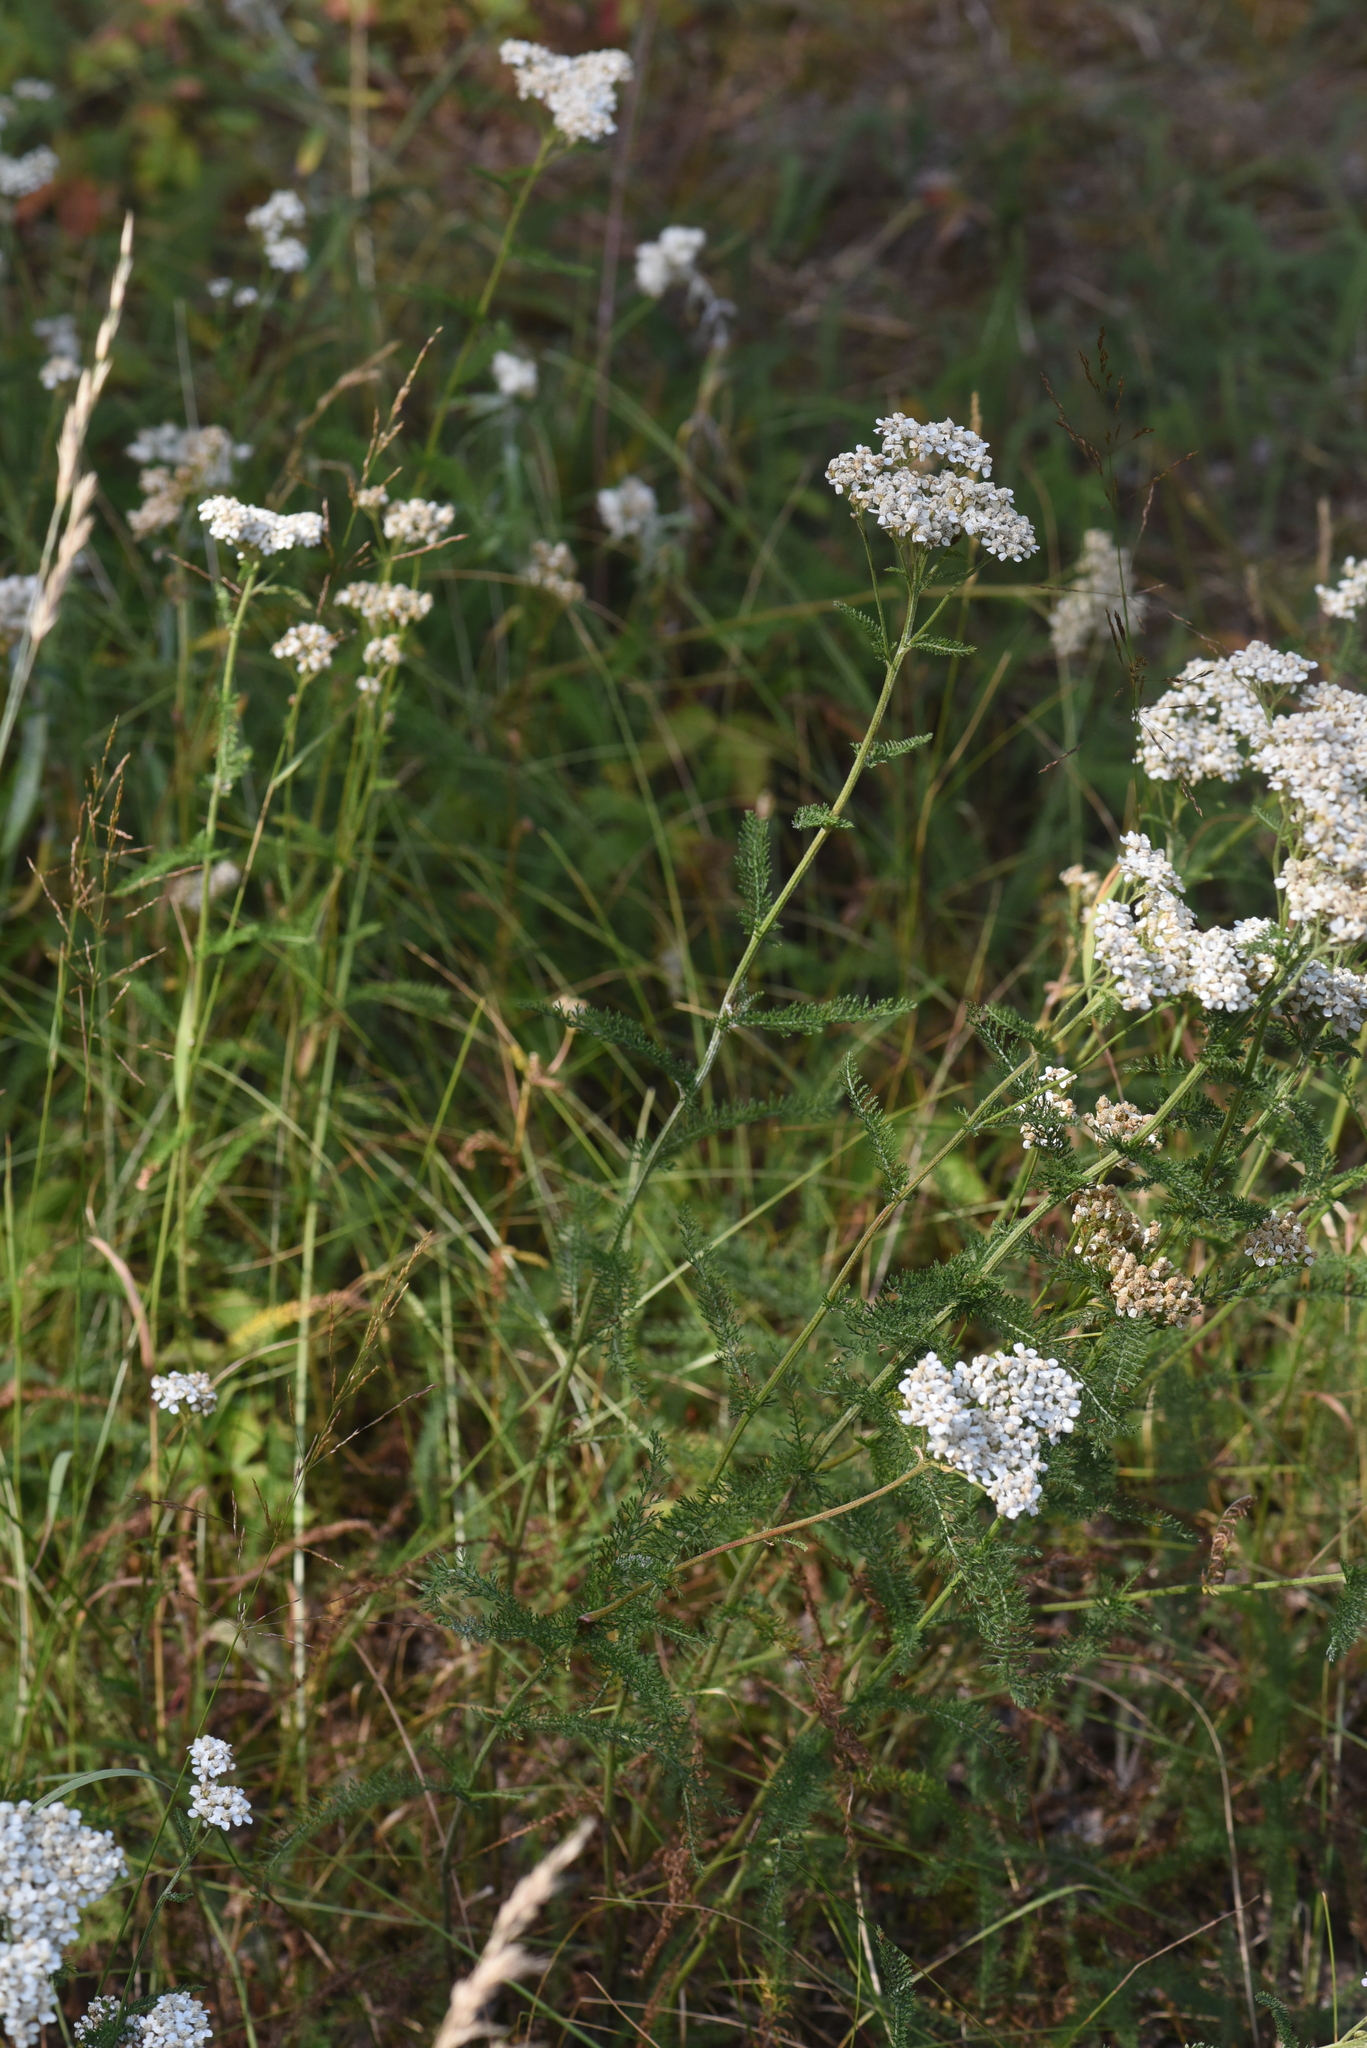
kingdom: Plantae
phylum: Tracheophyta
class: Magnoliopsida
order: Asterales
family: Asteraceae
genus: Achillea
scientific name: Achillea millefolium
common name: Yarrow
